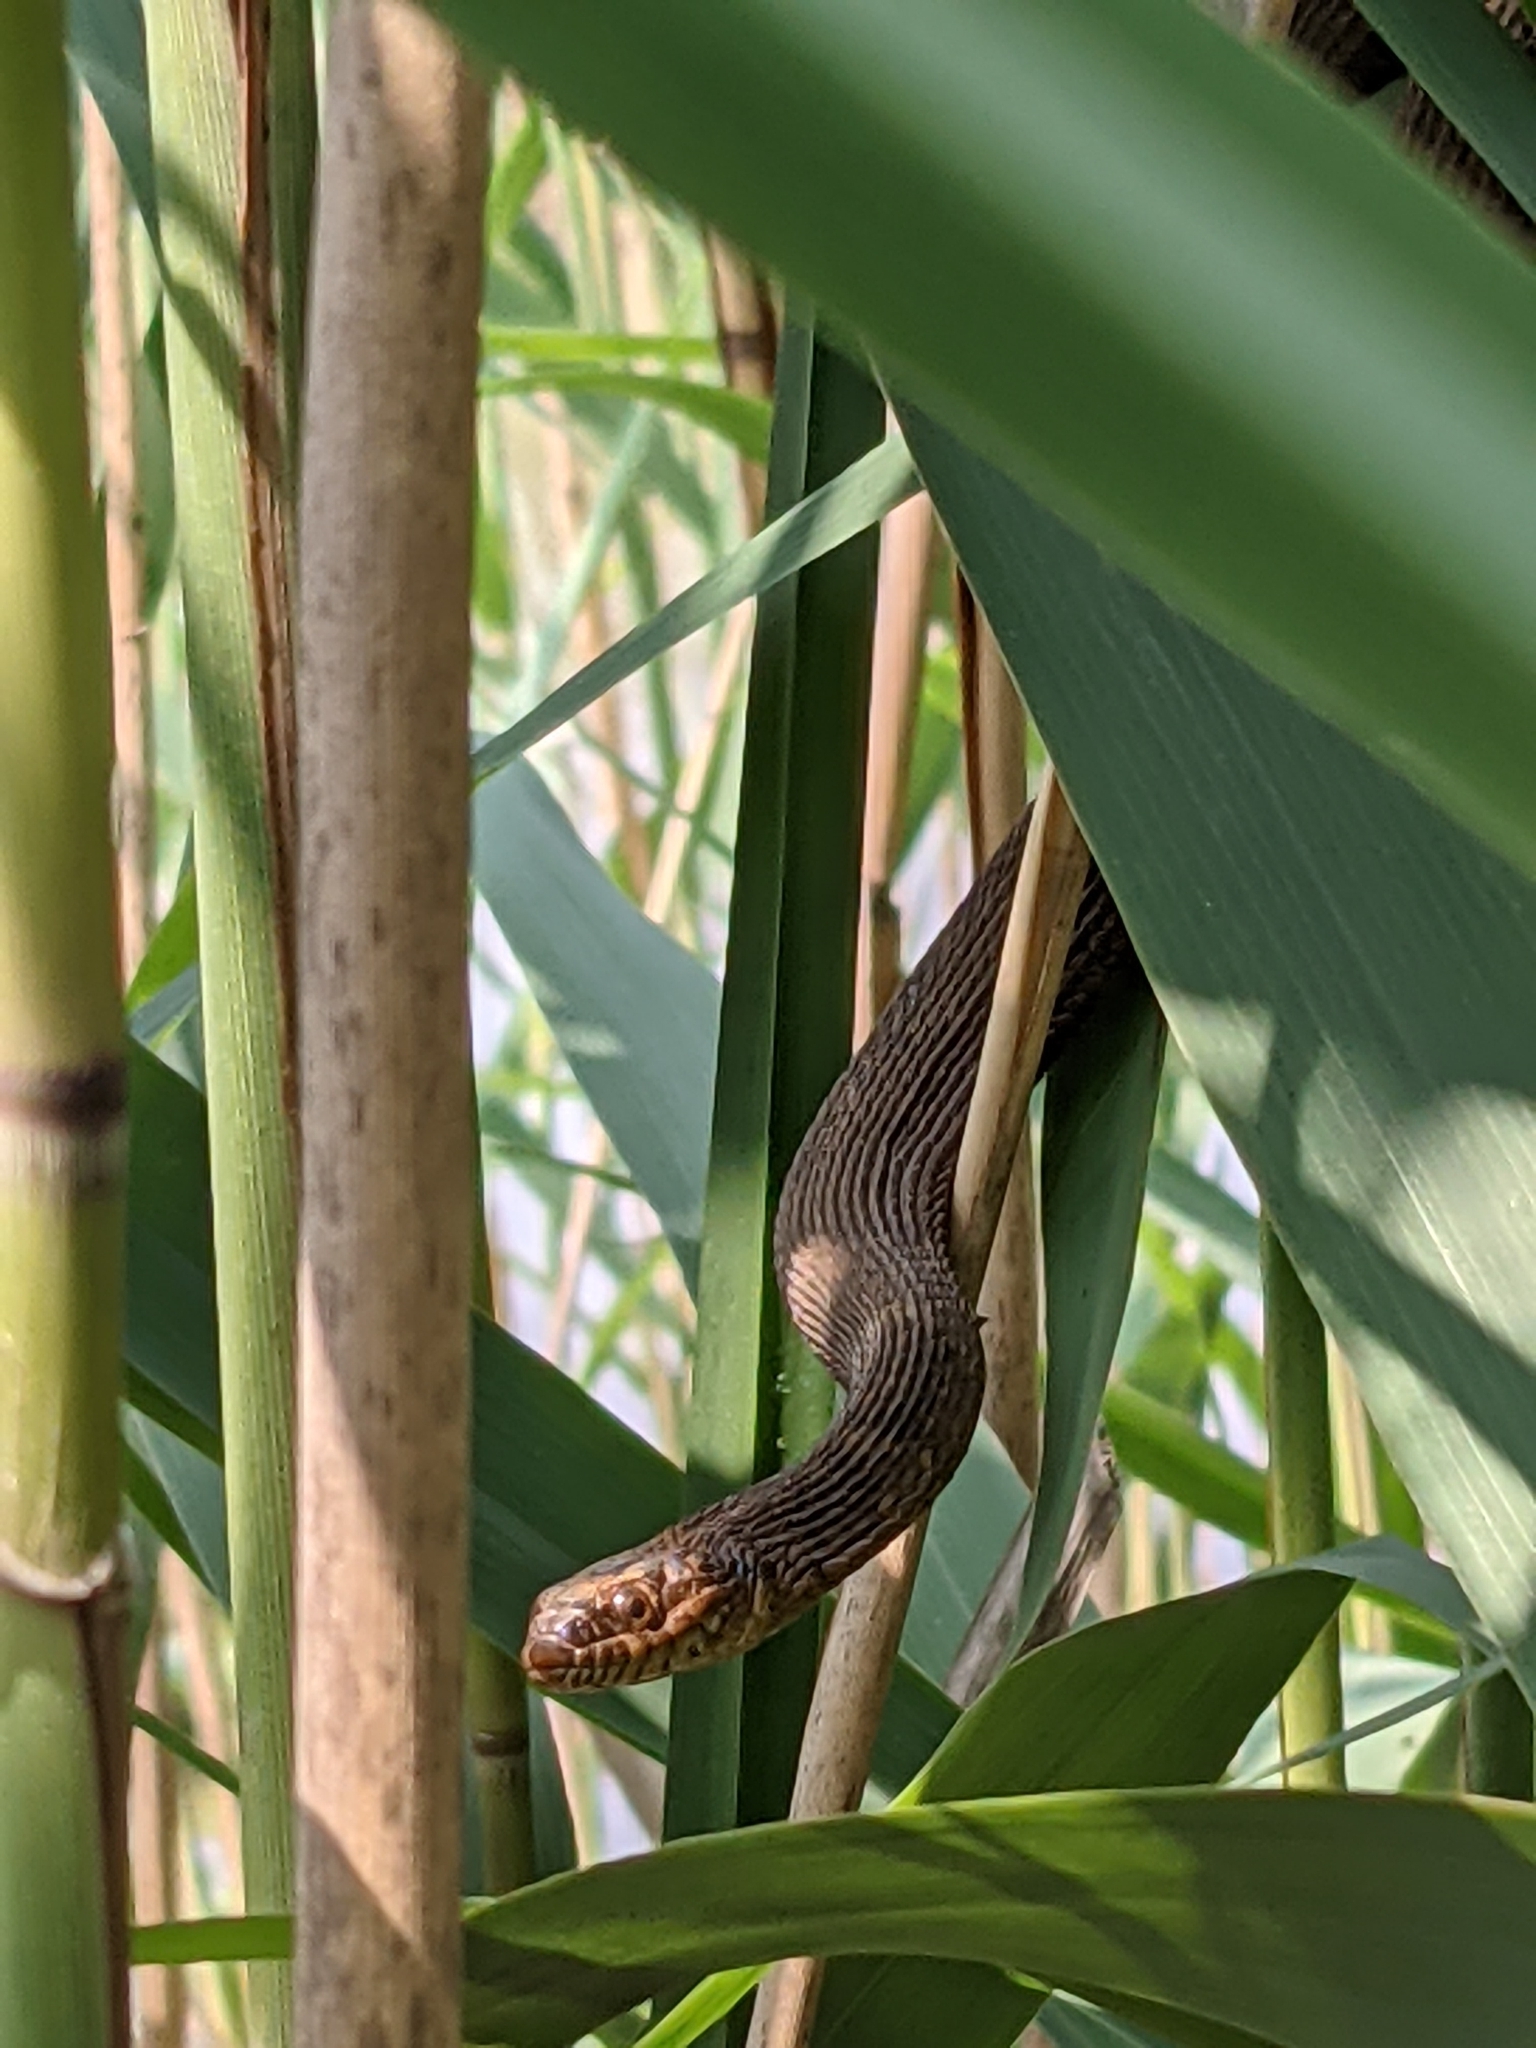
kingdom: Animalia
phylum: Chordata
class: Squamata
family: Colubridae
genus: Nerodia
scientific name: Nerodia sipedon
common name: Northern water snake
